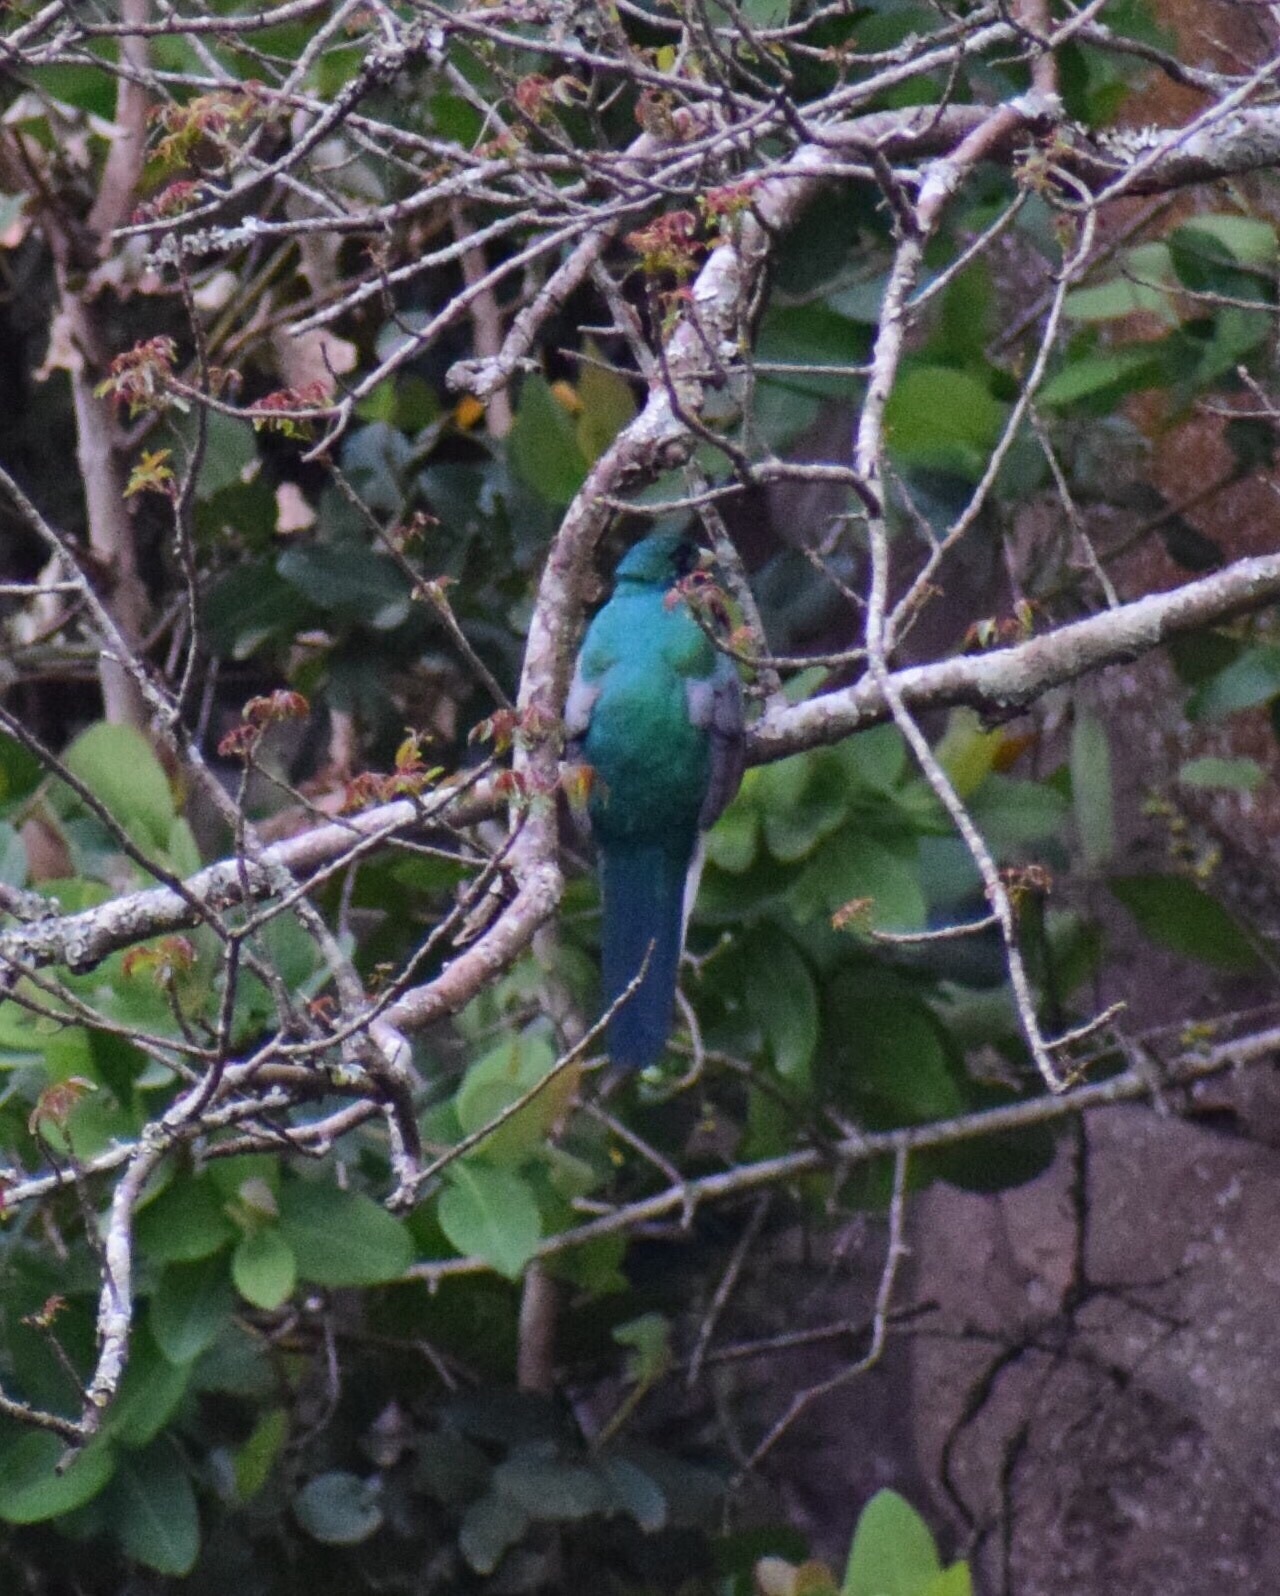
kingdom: Animalia
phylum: Chordata
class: Aves
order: Trogoniformes
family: Trogonidae
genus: Apaloderma
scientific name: Apaloderma narina
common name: Narina trogon
